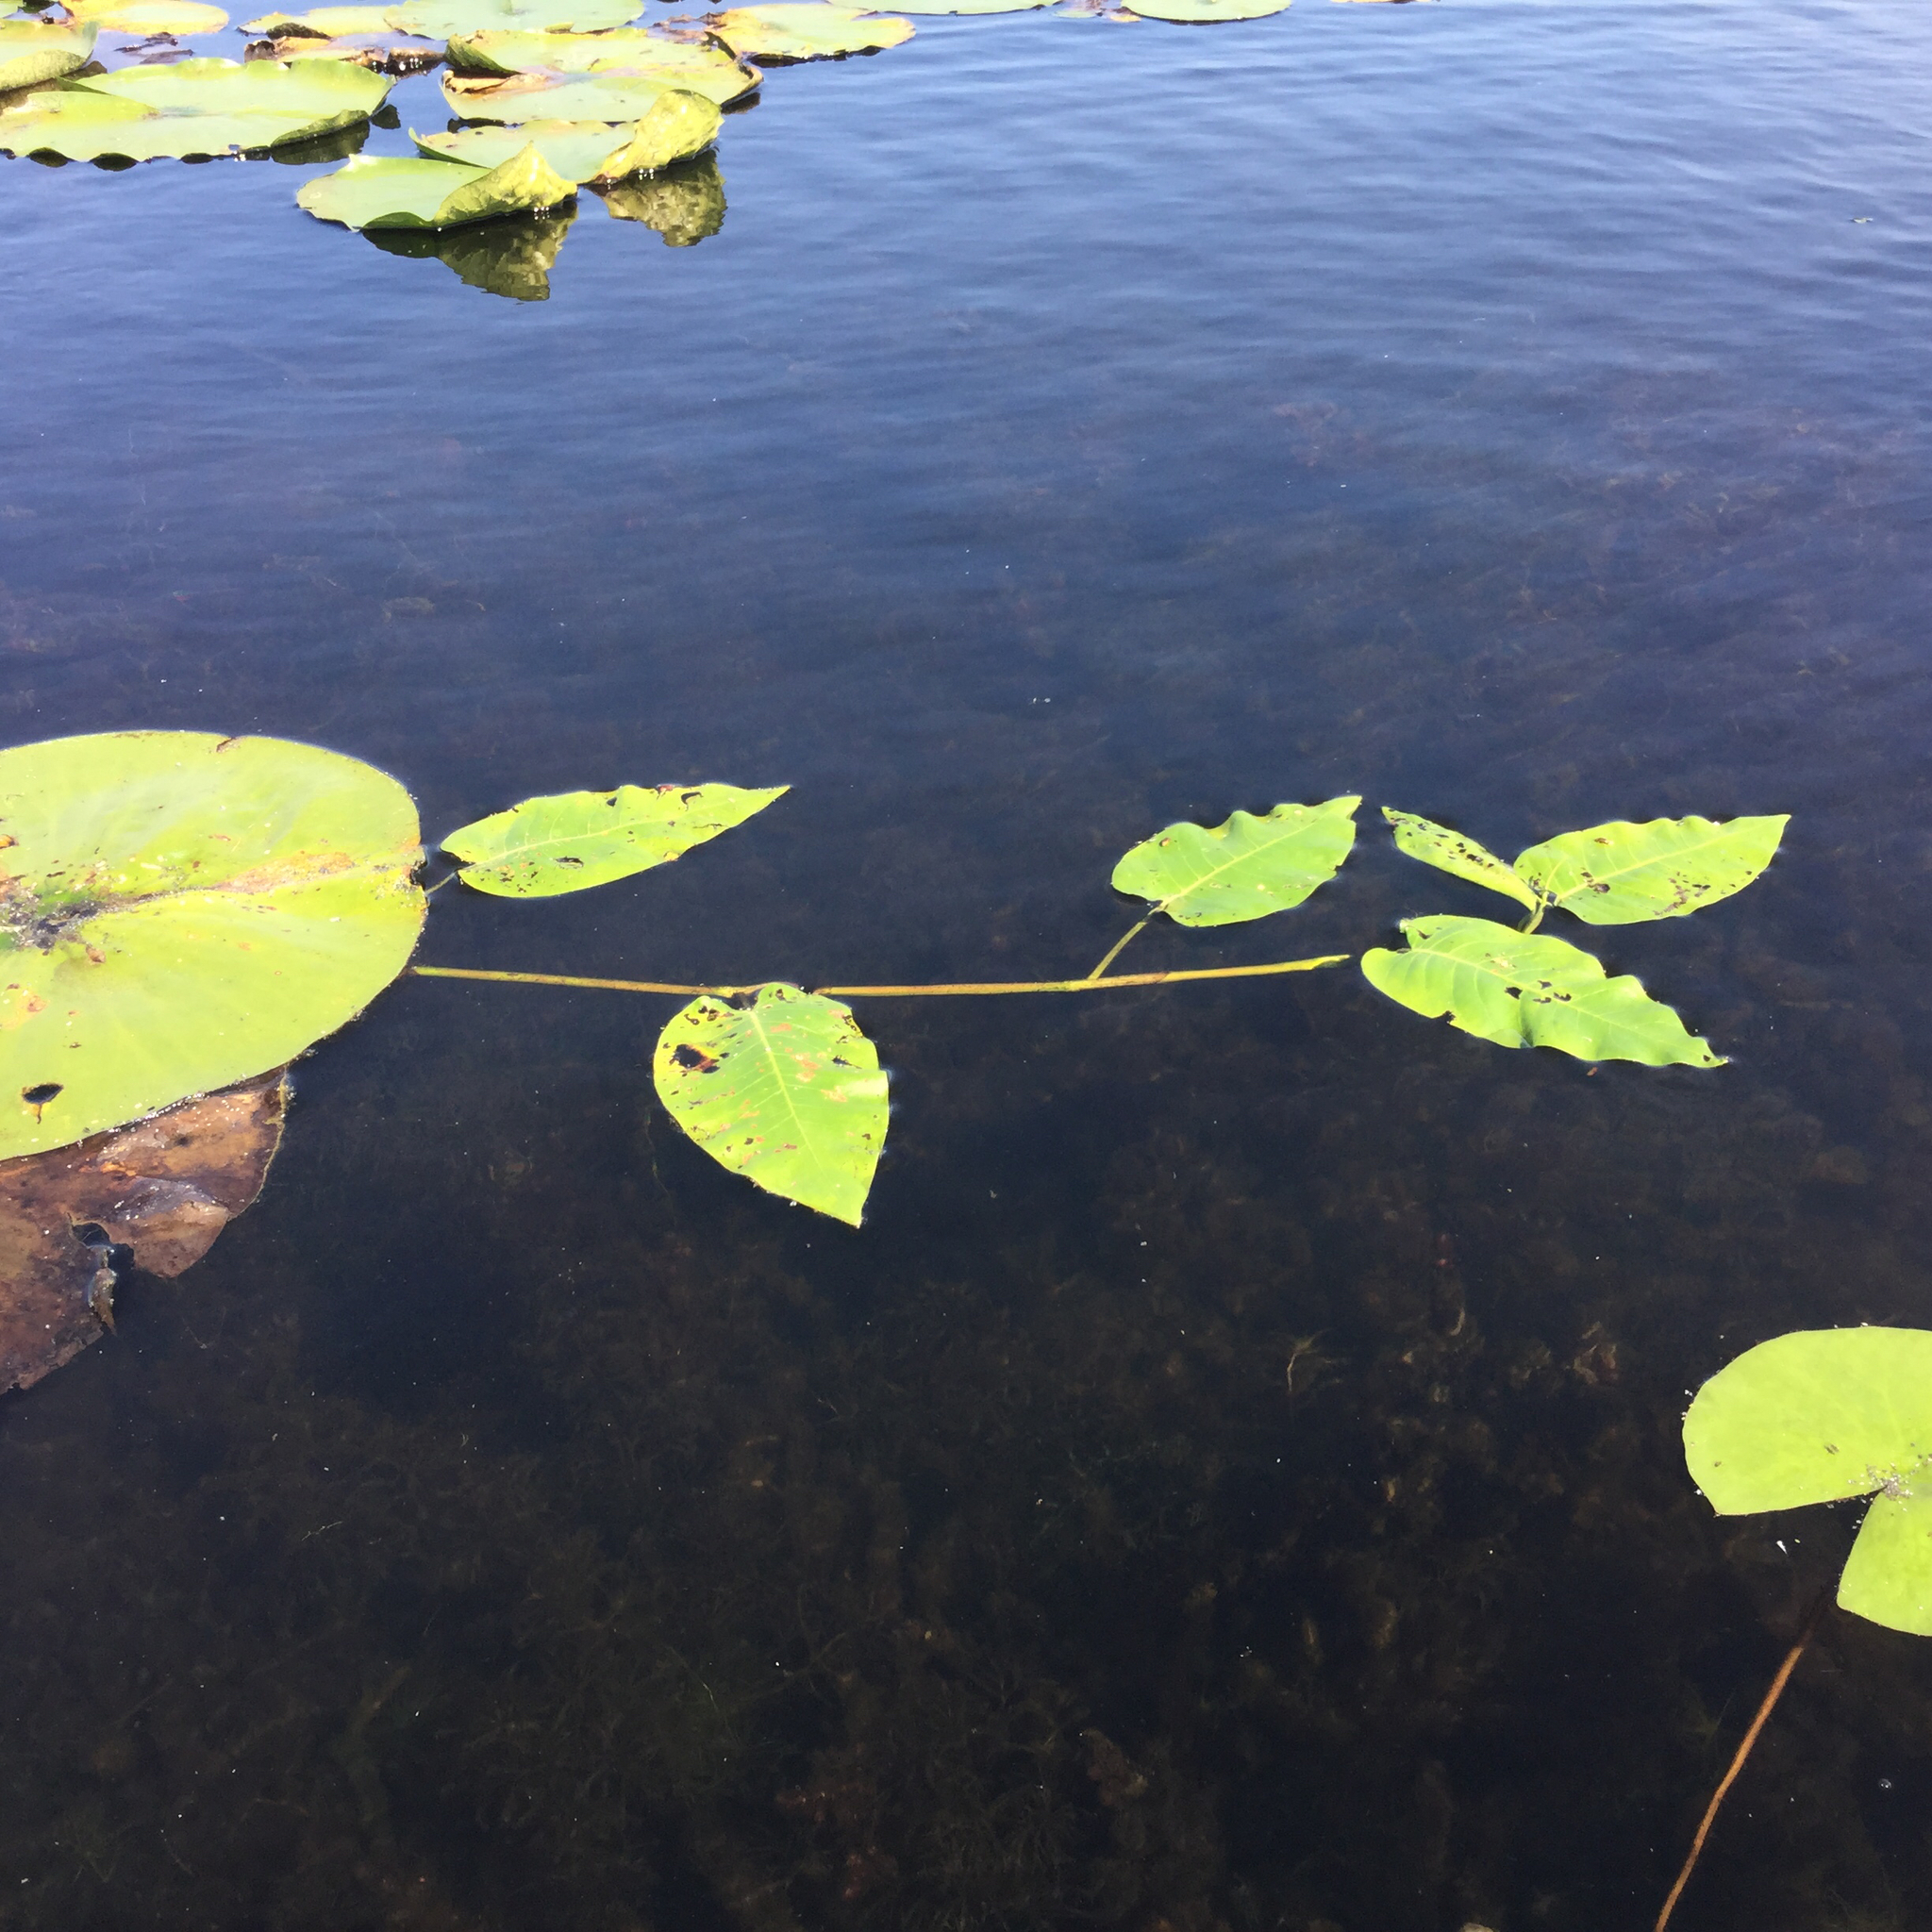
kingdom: Plantae
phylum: Tracheophyta
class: Magnoliopsida
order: Caryophyllales
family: Polygonaceae
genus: Persicaria
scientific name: Persicaria amphibia
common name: Amphibious bistort
